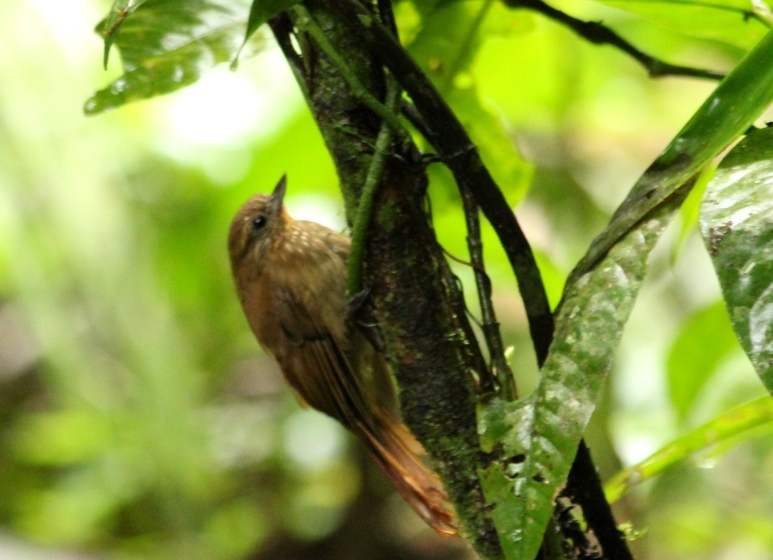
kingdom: Animalia
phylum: Chordata
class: Aves
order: Passeriformes
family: Furnariidae
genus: Glyphorynchus
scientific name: Glyphorynchus spirurus
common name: Wedge-billed woodcreeper
